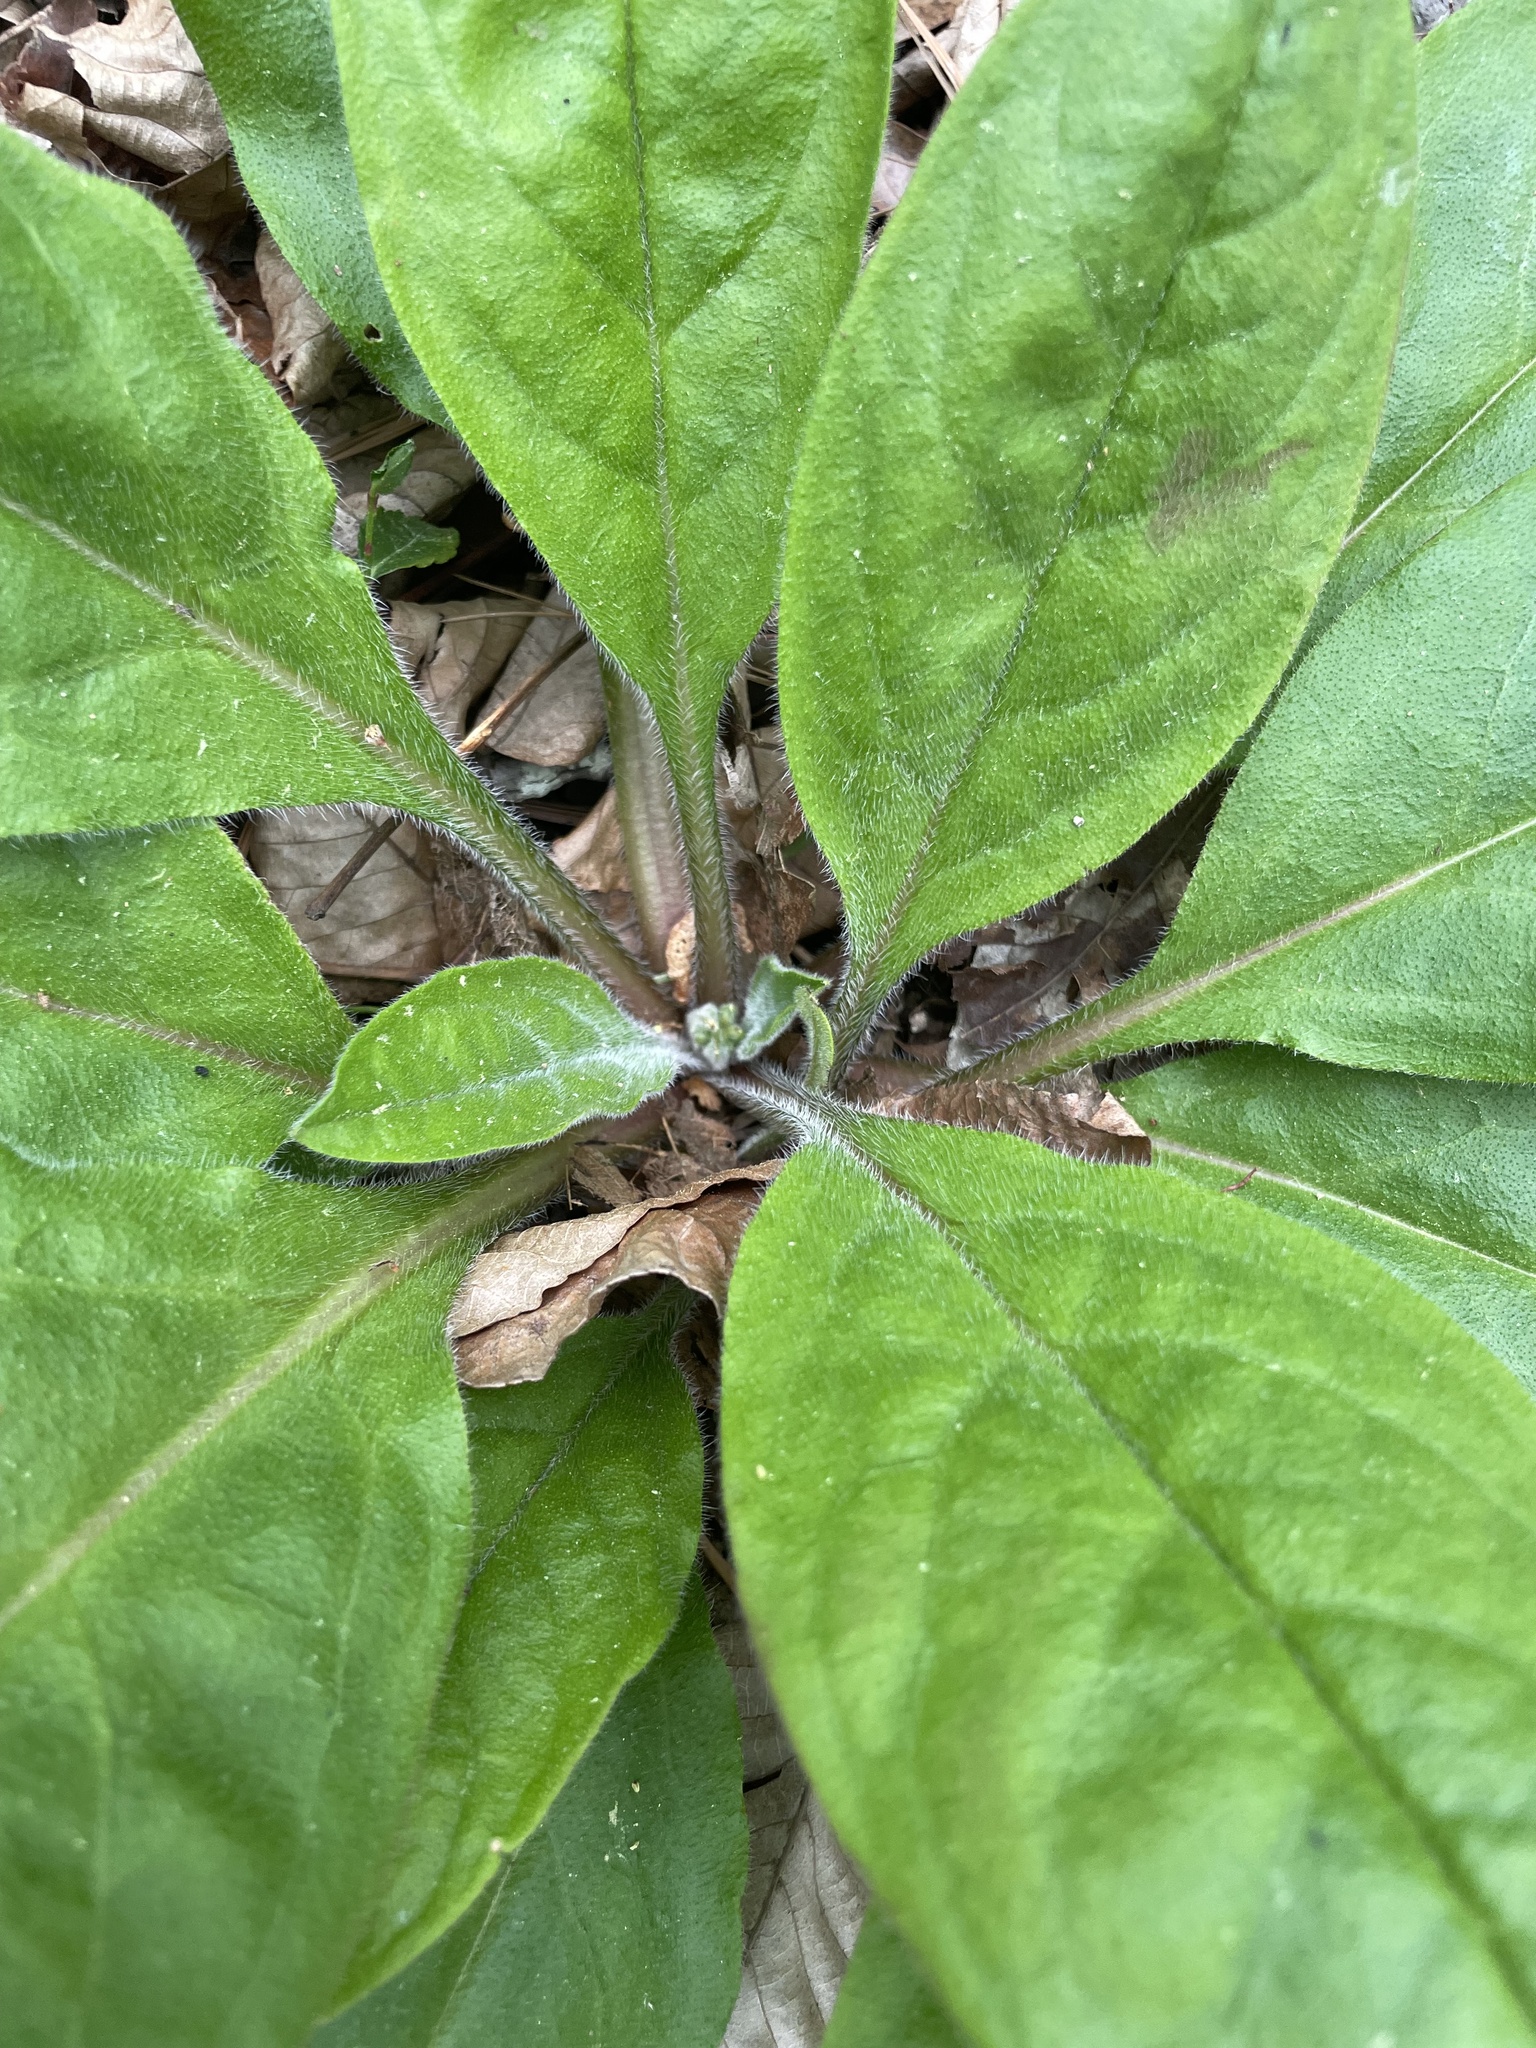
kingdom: Plantae
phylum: Tracheophyta
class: Magnoliopsida
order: Boraginales
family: Boraginaceae
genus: Andersonglossum
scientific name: Andersonglossum virginianum
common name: Wild comfrey
